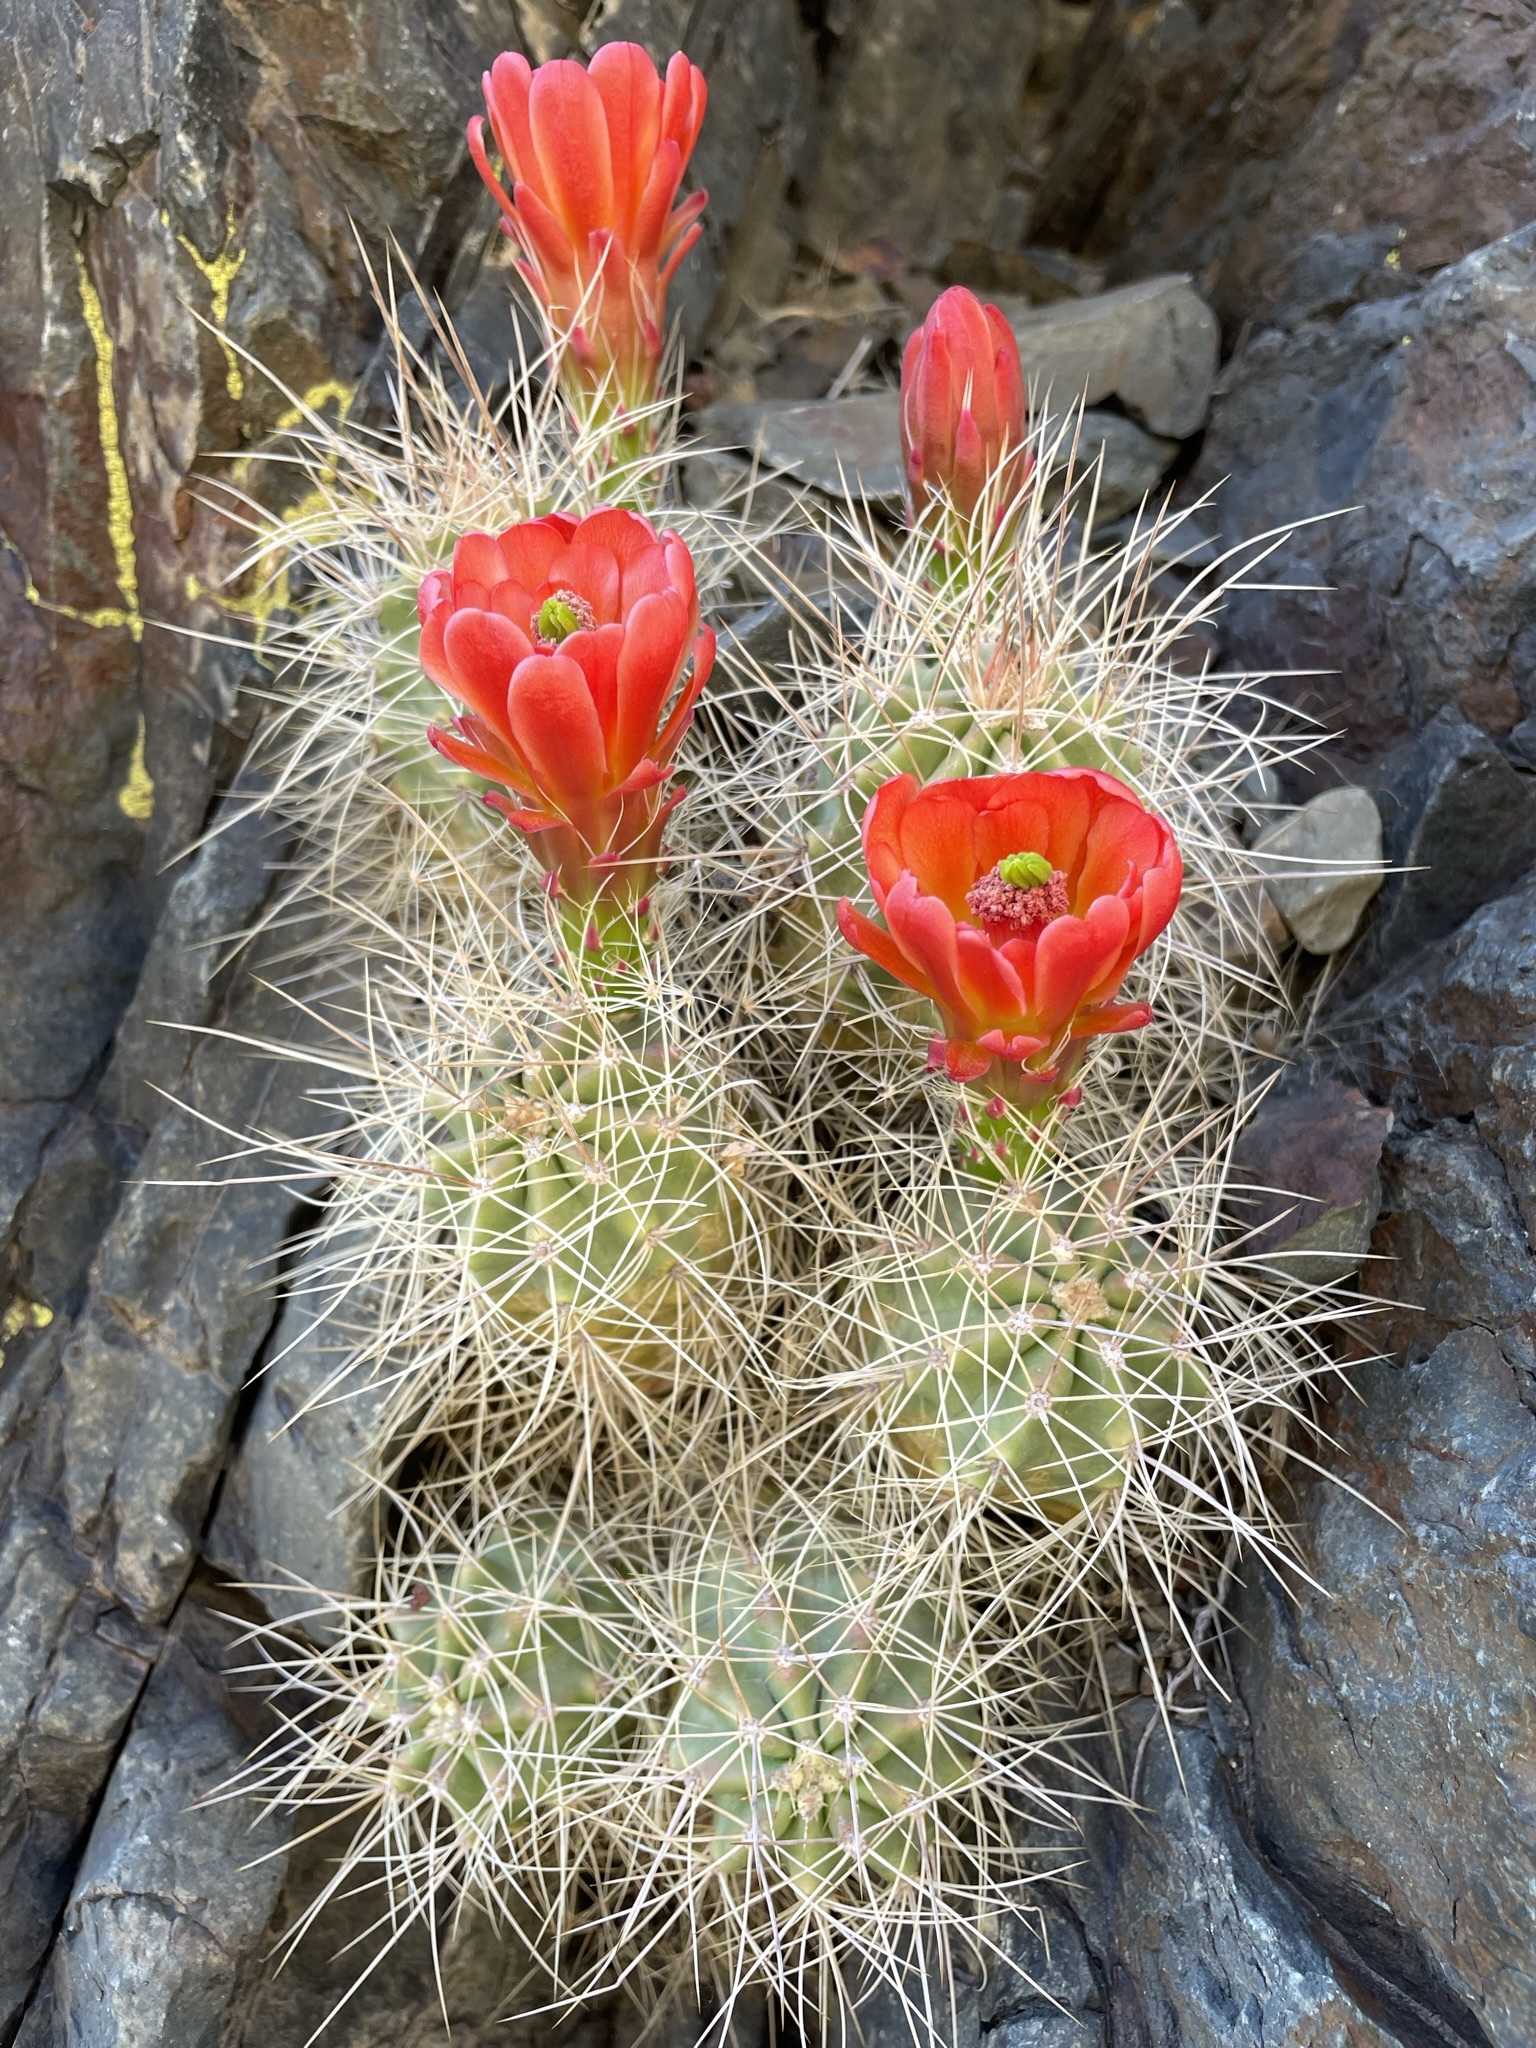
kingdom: Plantae
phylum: Tracheophyta
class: Magnoliopsida
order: Caryophyllales
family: Cactaceae
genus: Echinocereus
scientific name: Echinocereus triglochidiatus
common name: Claretcup hedgehog
